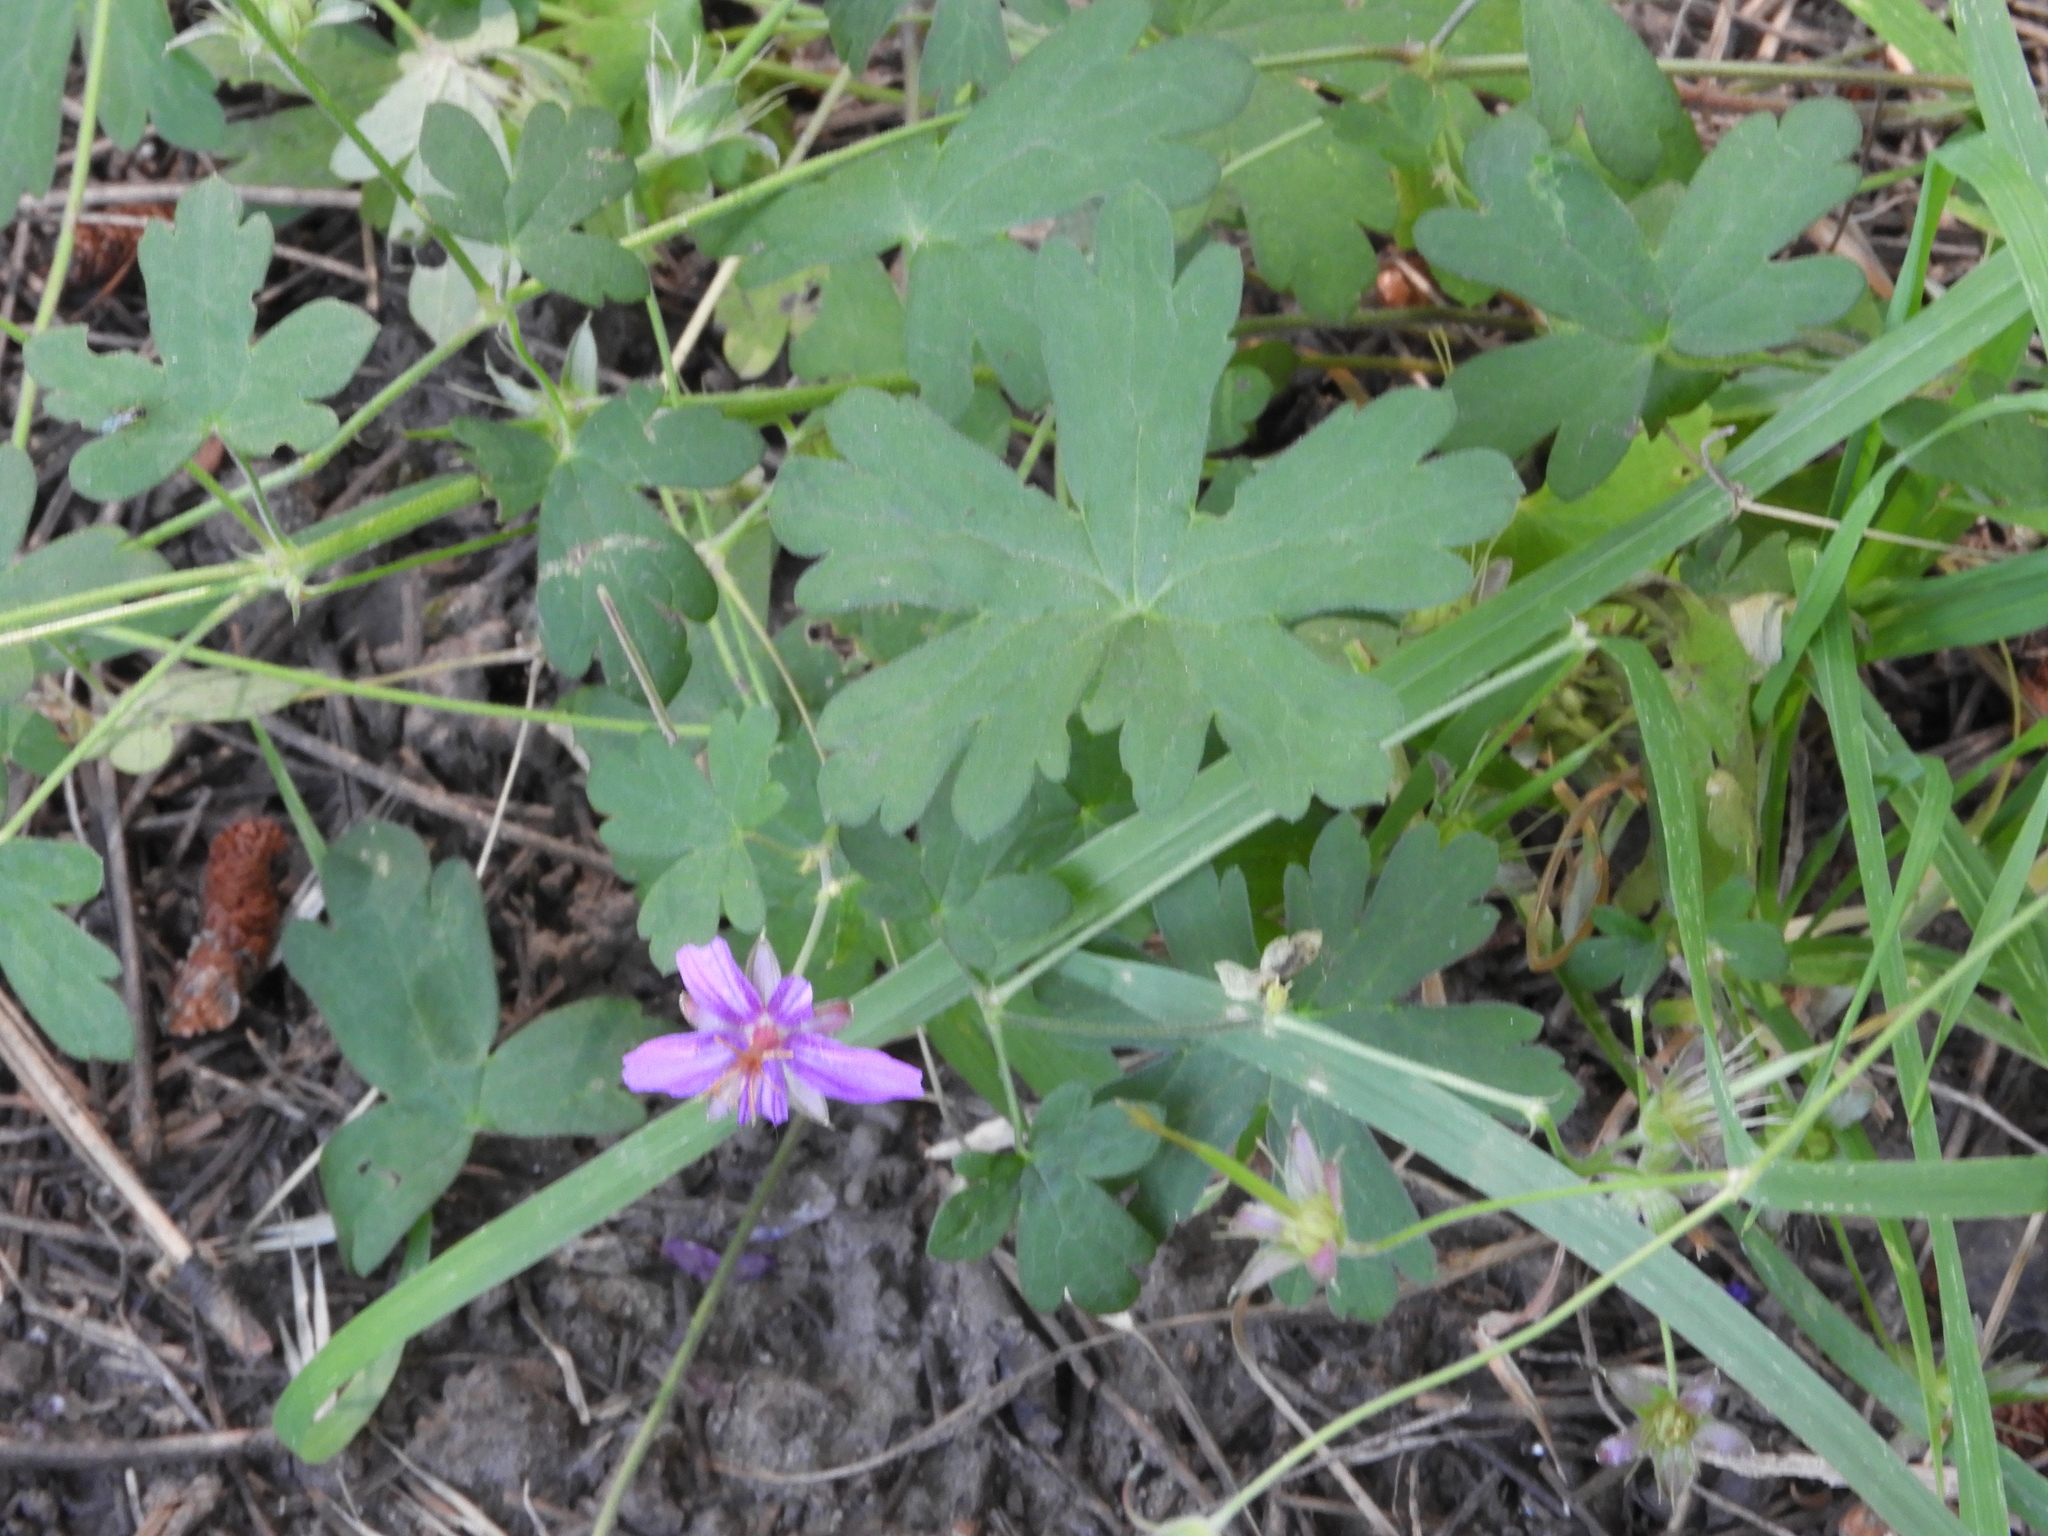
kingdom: Plantae
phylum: Tracheophyta
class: Magnoliopsida
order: Geraniales
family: Geraniaceae
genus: Geranium
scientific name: Geranium caespitosum
